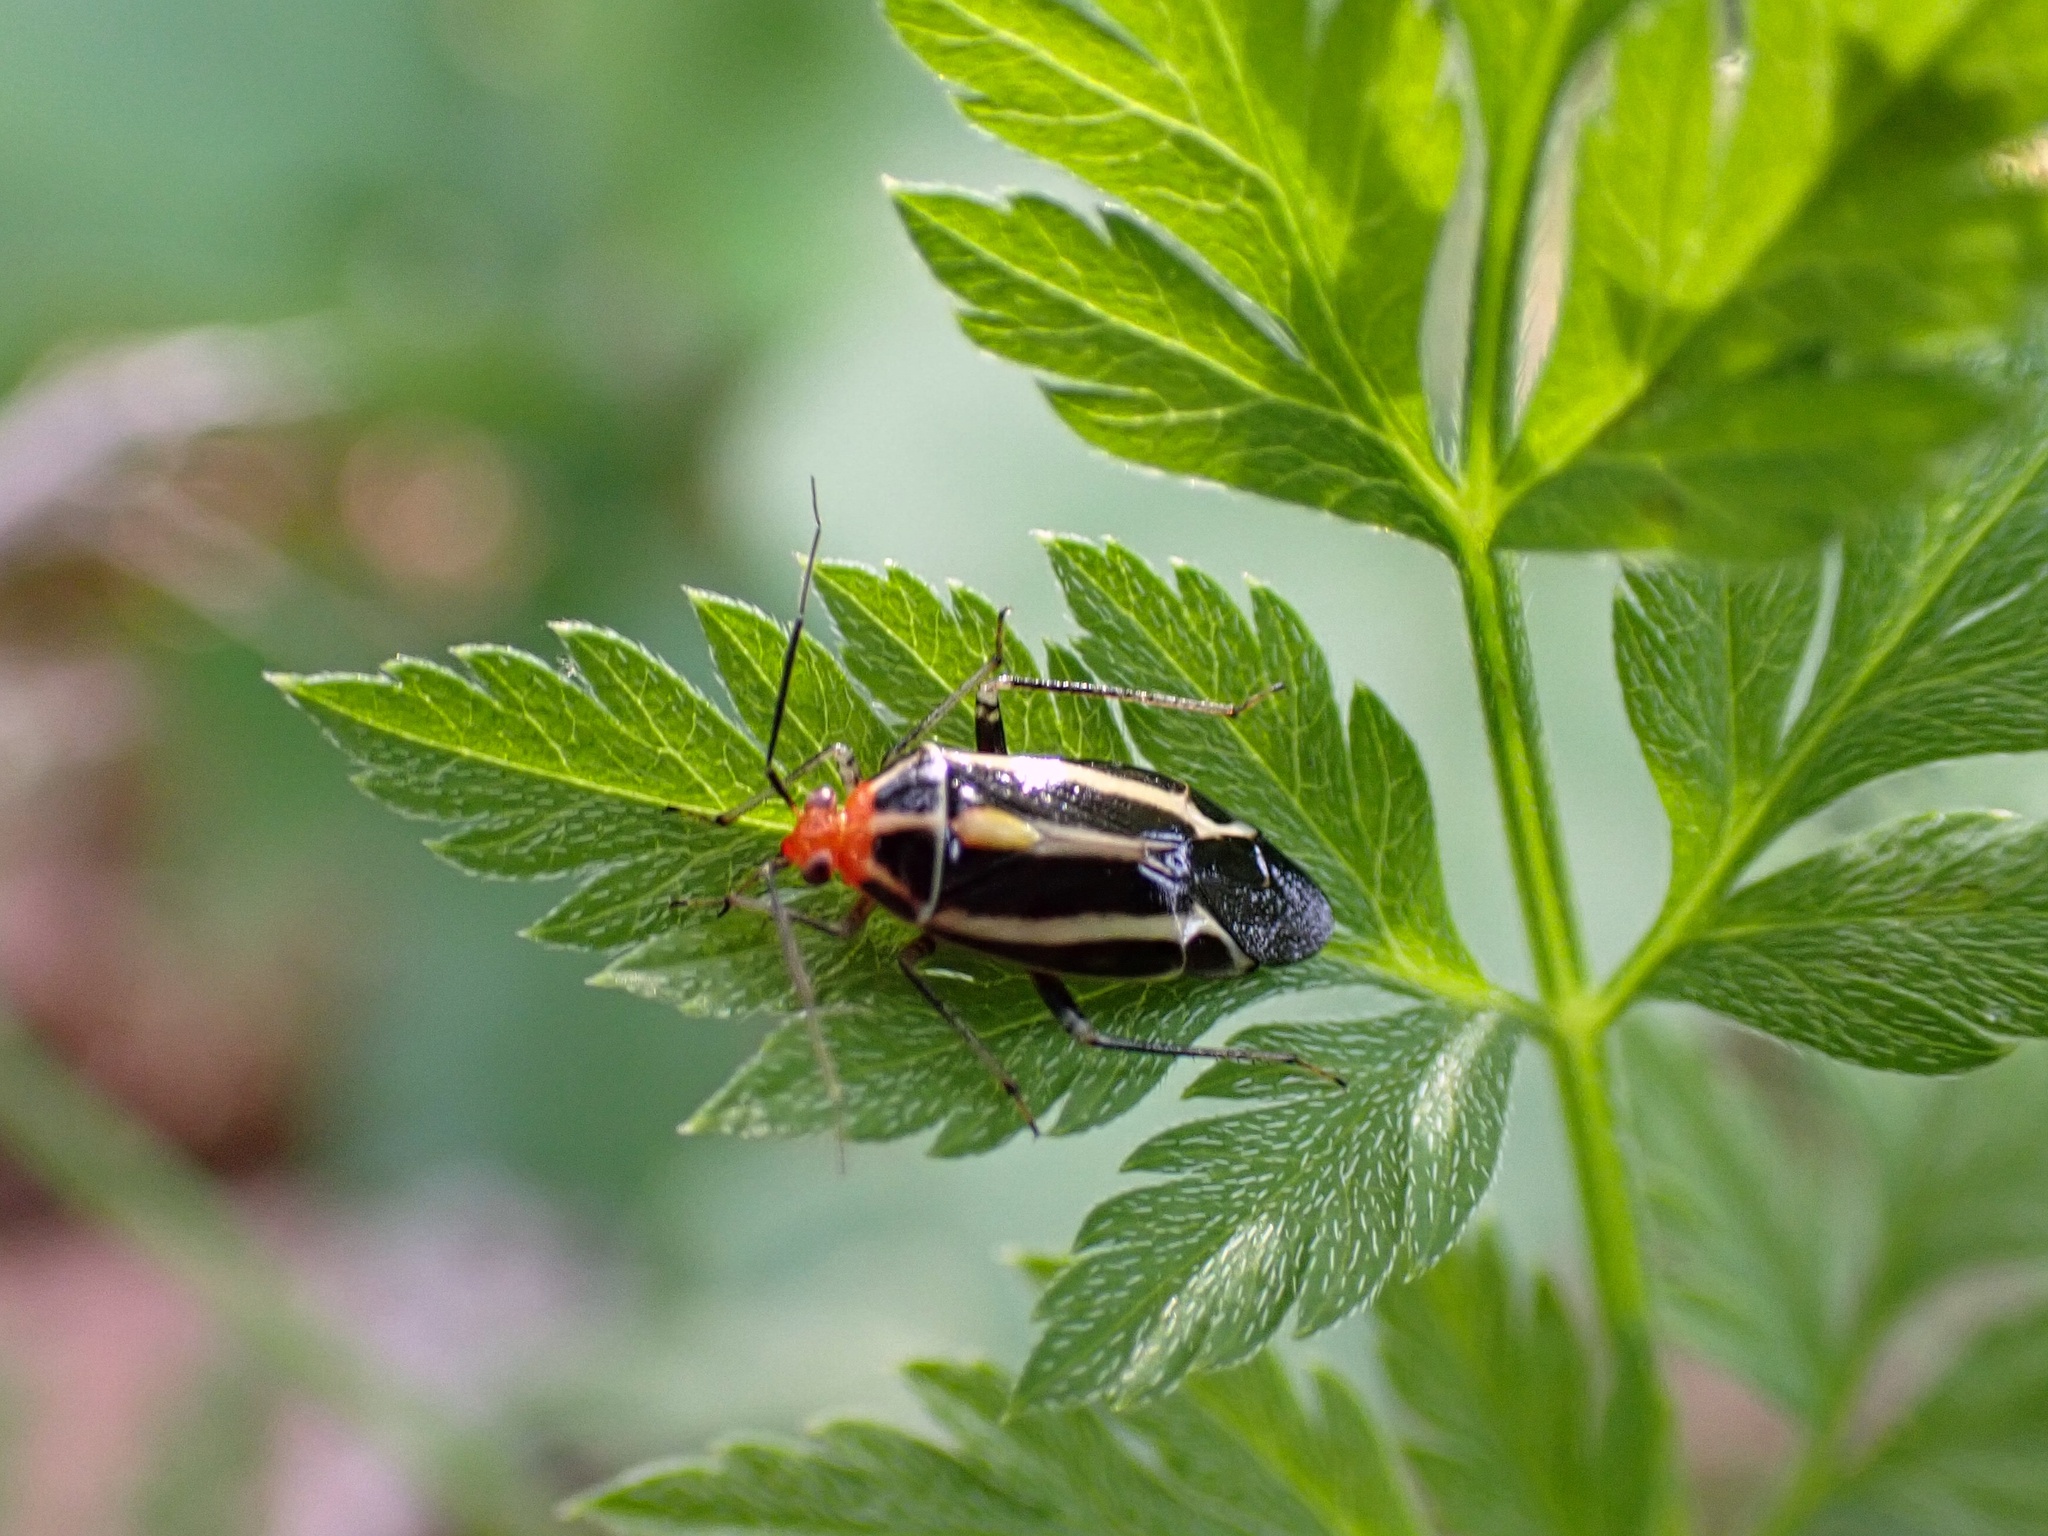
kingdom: Animalia
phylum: Arthropoda
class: Insecta
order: Hemiptera
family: Miridae
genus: Poecilocapsus
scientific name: Poecilocapsus lineatus
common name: Four-lined plant bug
